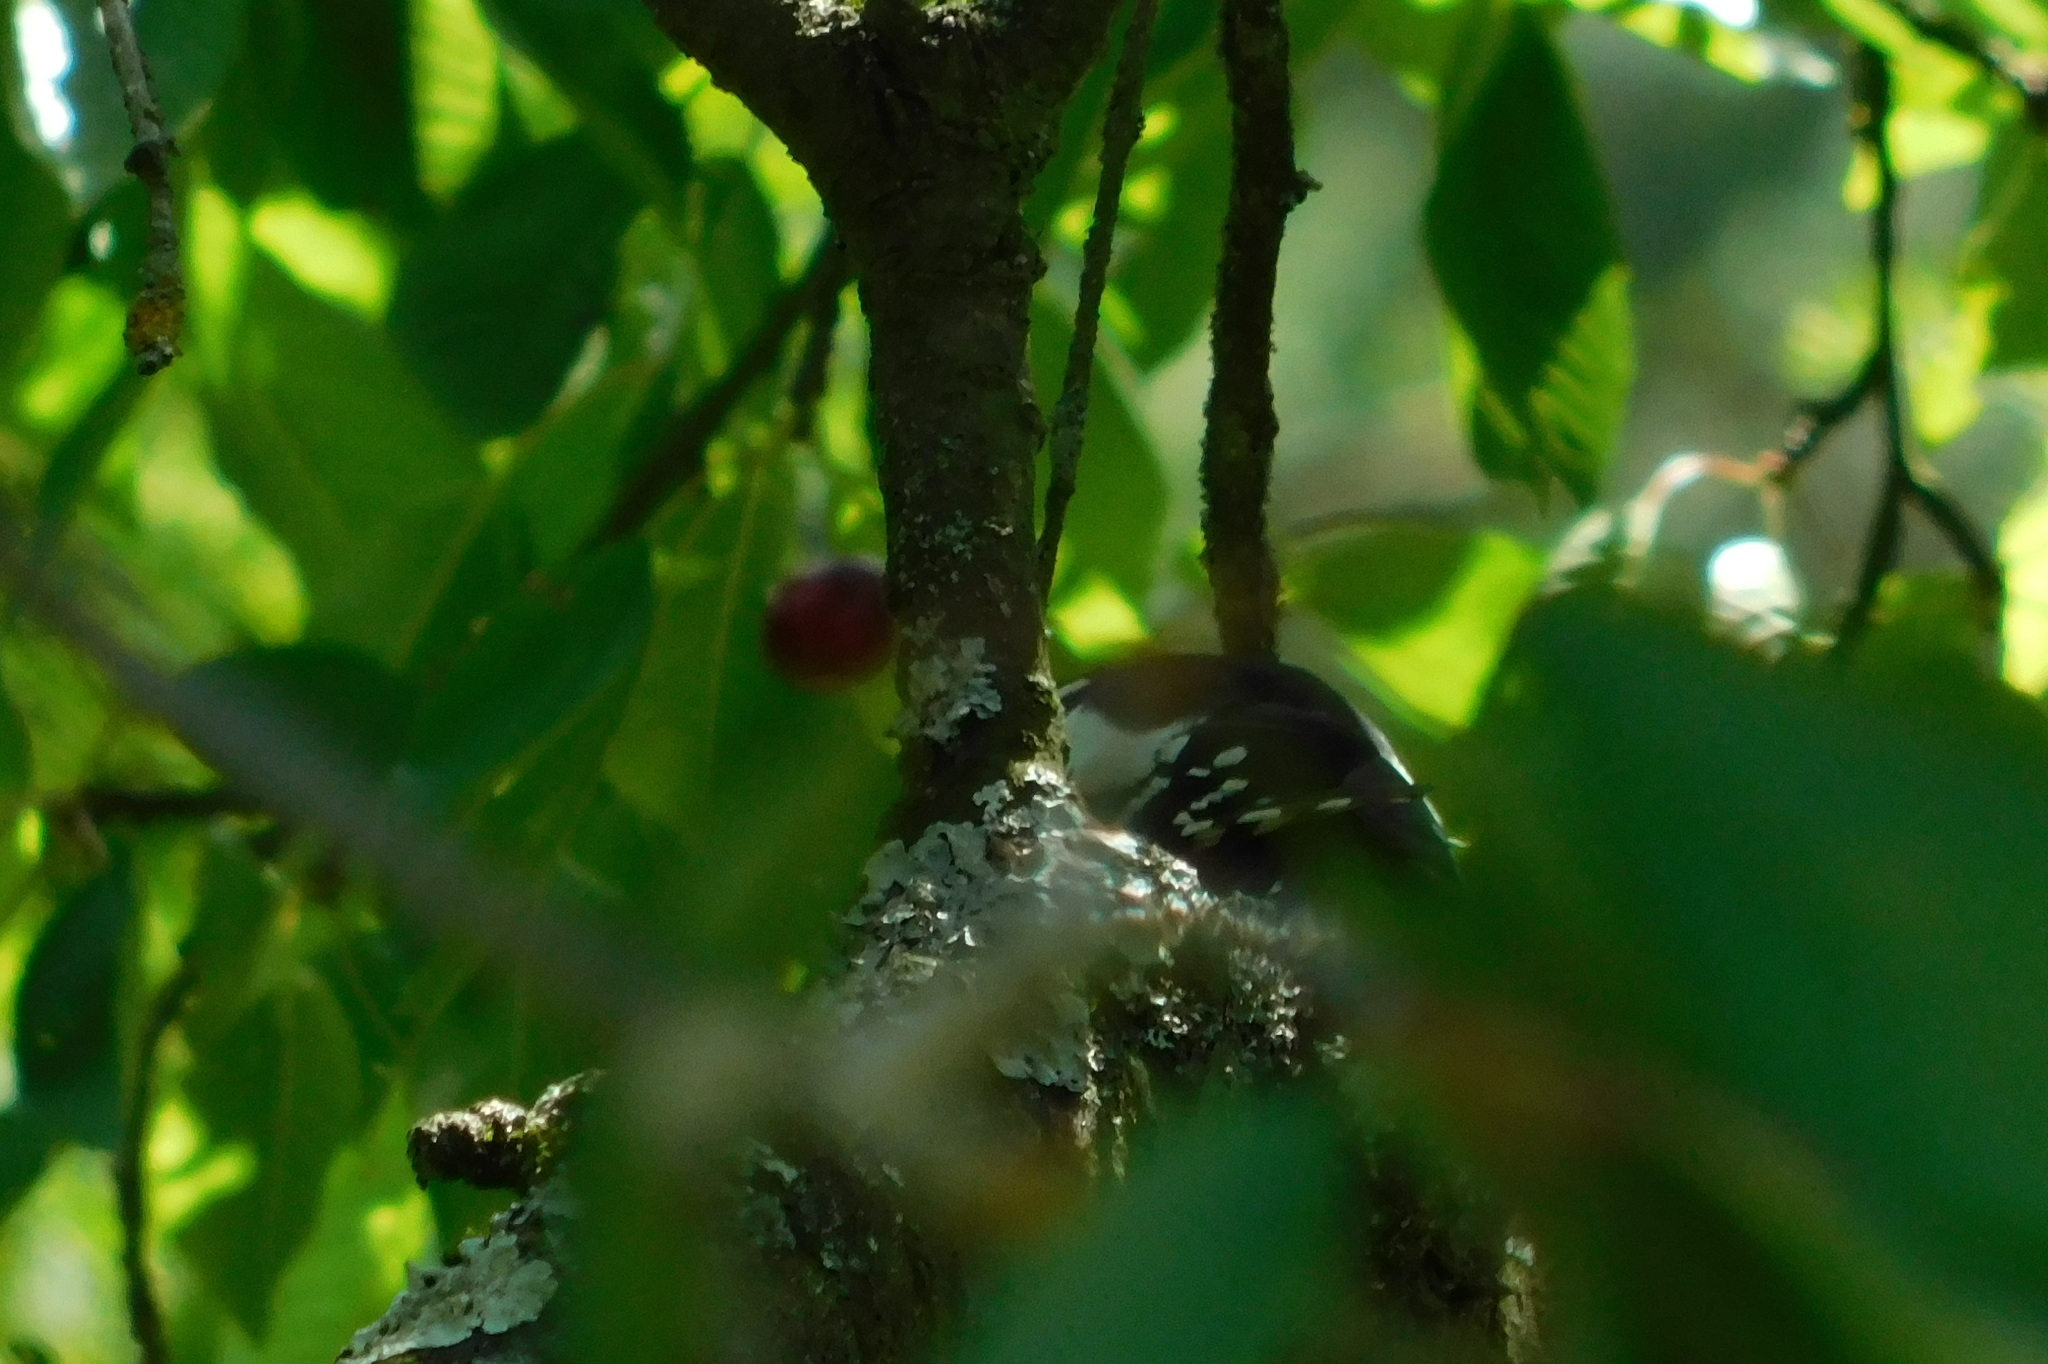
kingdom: Animalia
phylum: Chordata
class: Aves
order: Piciformes
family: Picidae
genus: Dendrocopos
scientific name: Dendrocopos major
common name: Great spotted woodpecker
